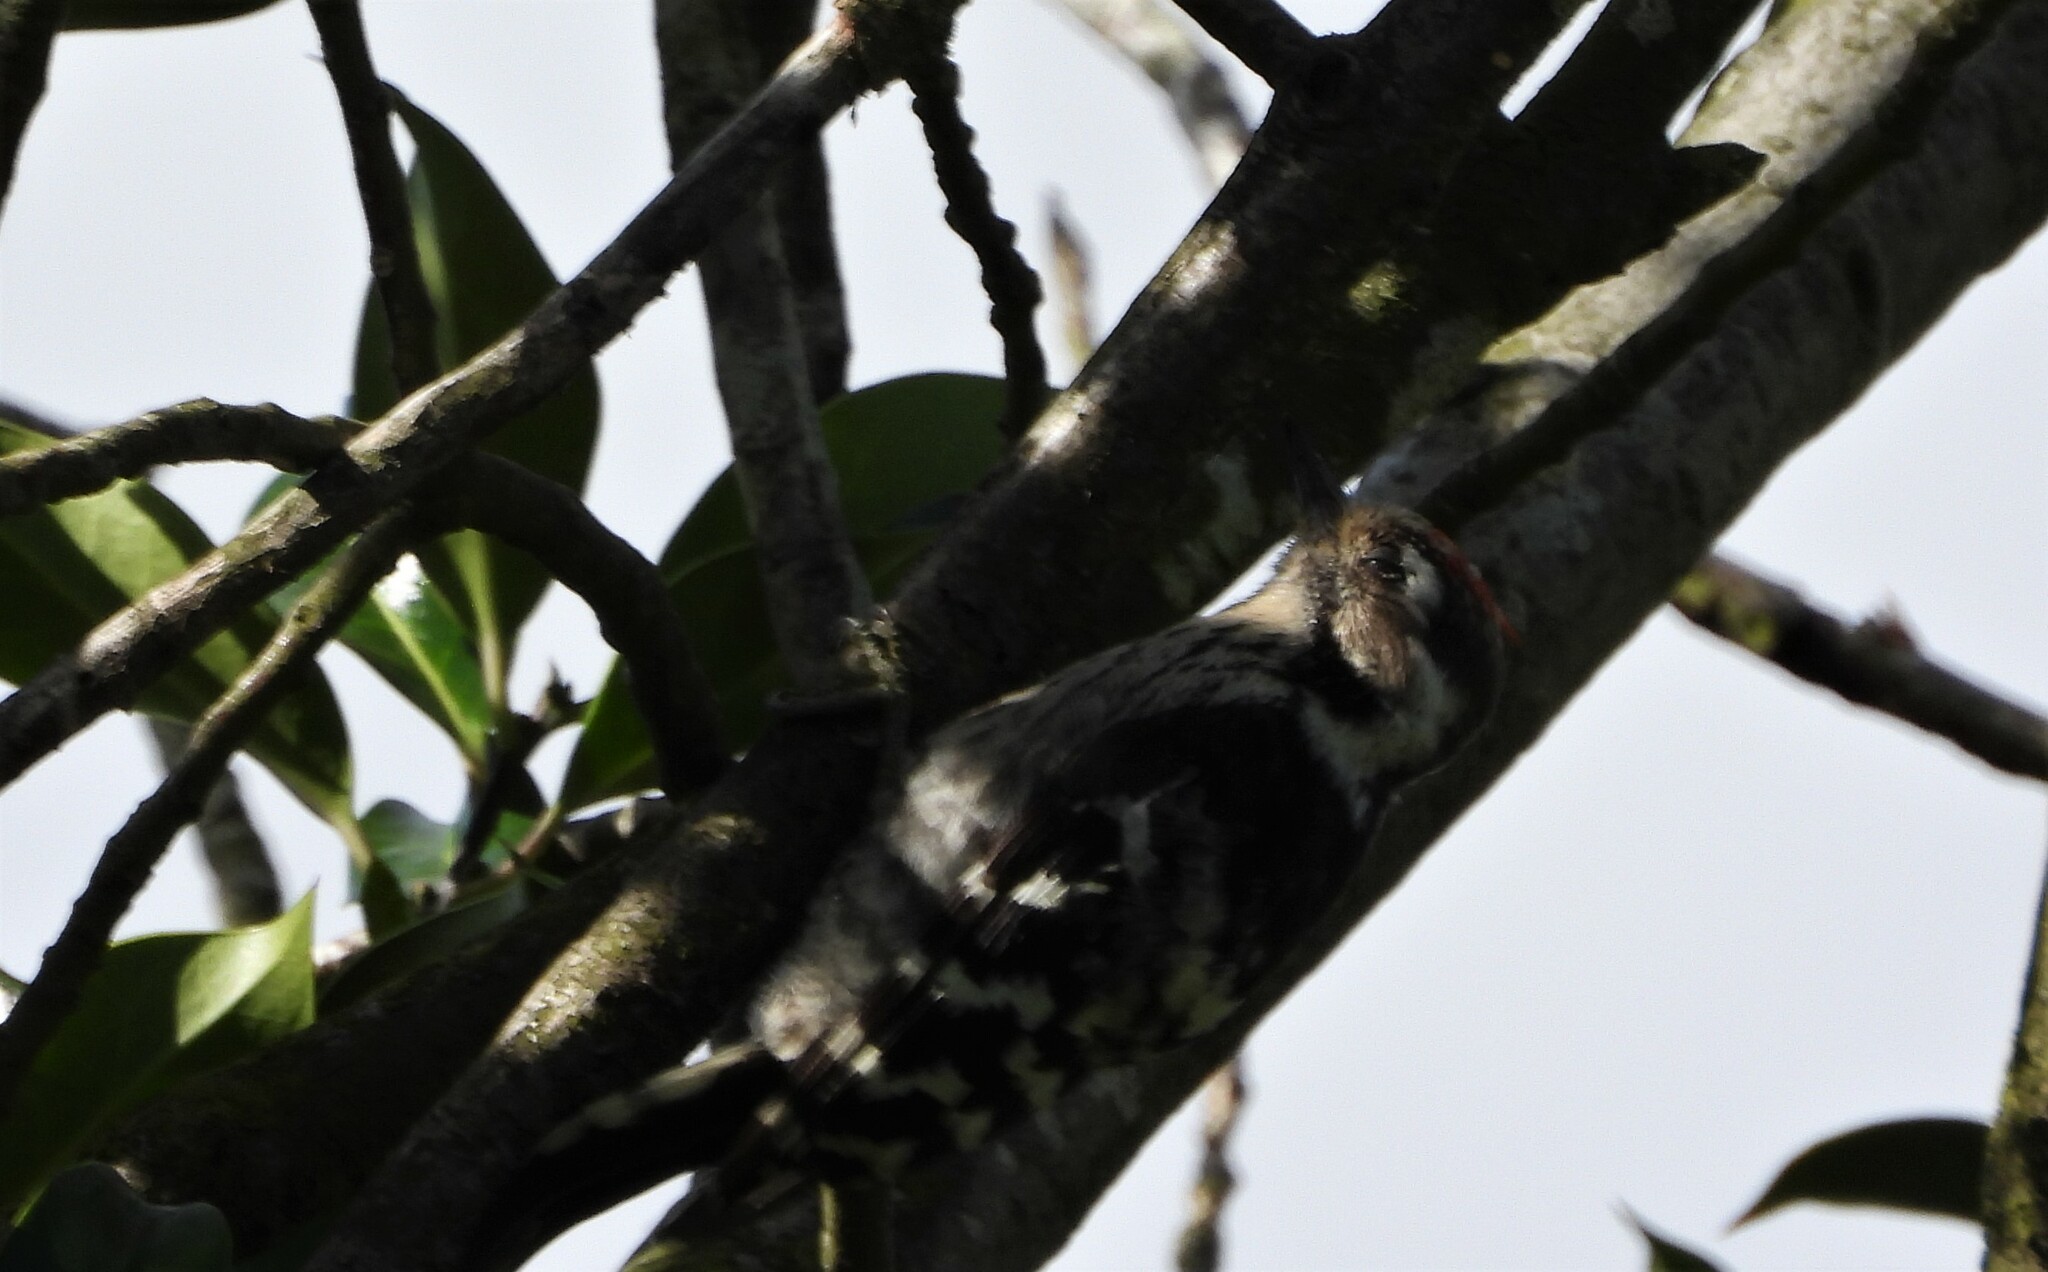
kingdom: Animalia
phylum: Chordata
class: Aves
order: Piciformes
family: Picidae
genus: Dryobates
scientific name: Dryobates minor
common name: Lesser spotted woodpecker
